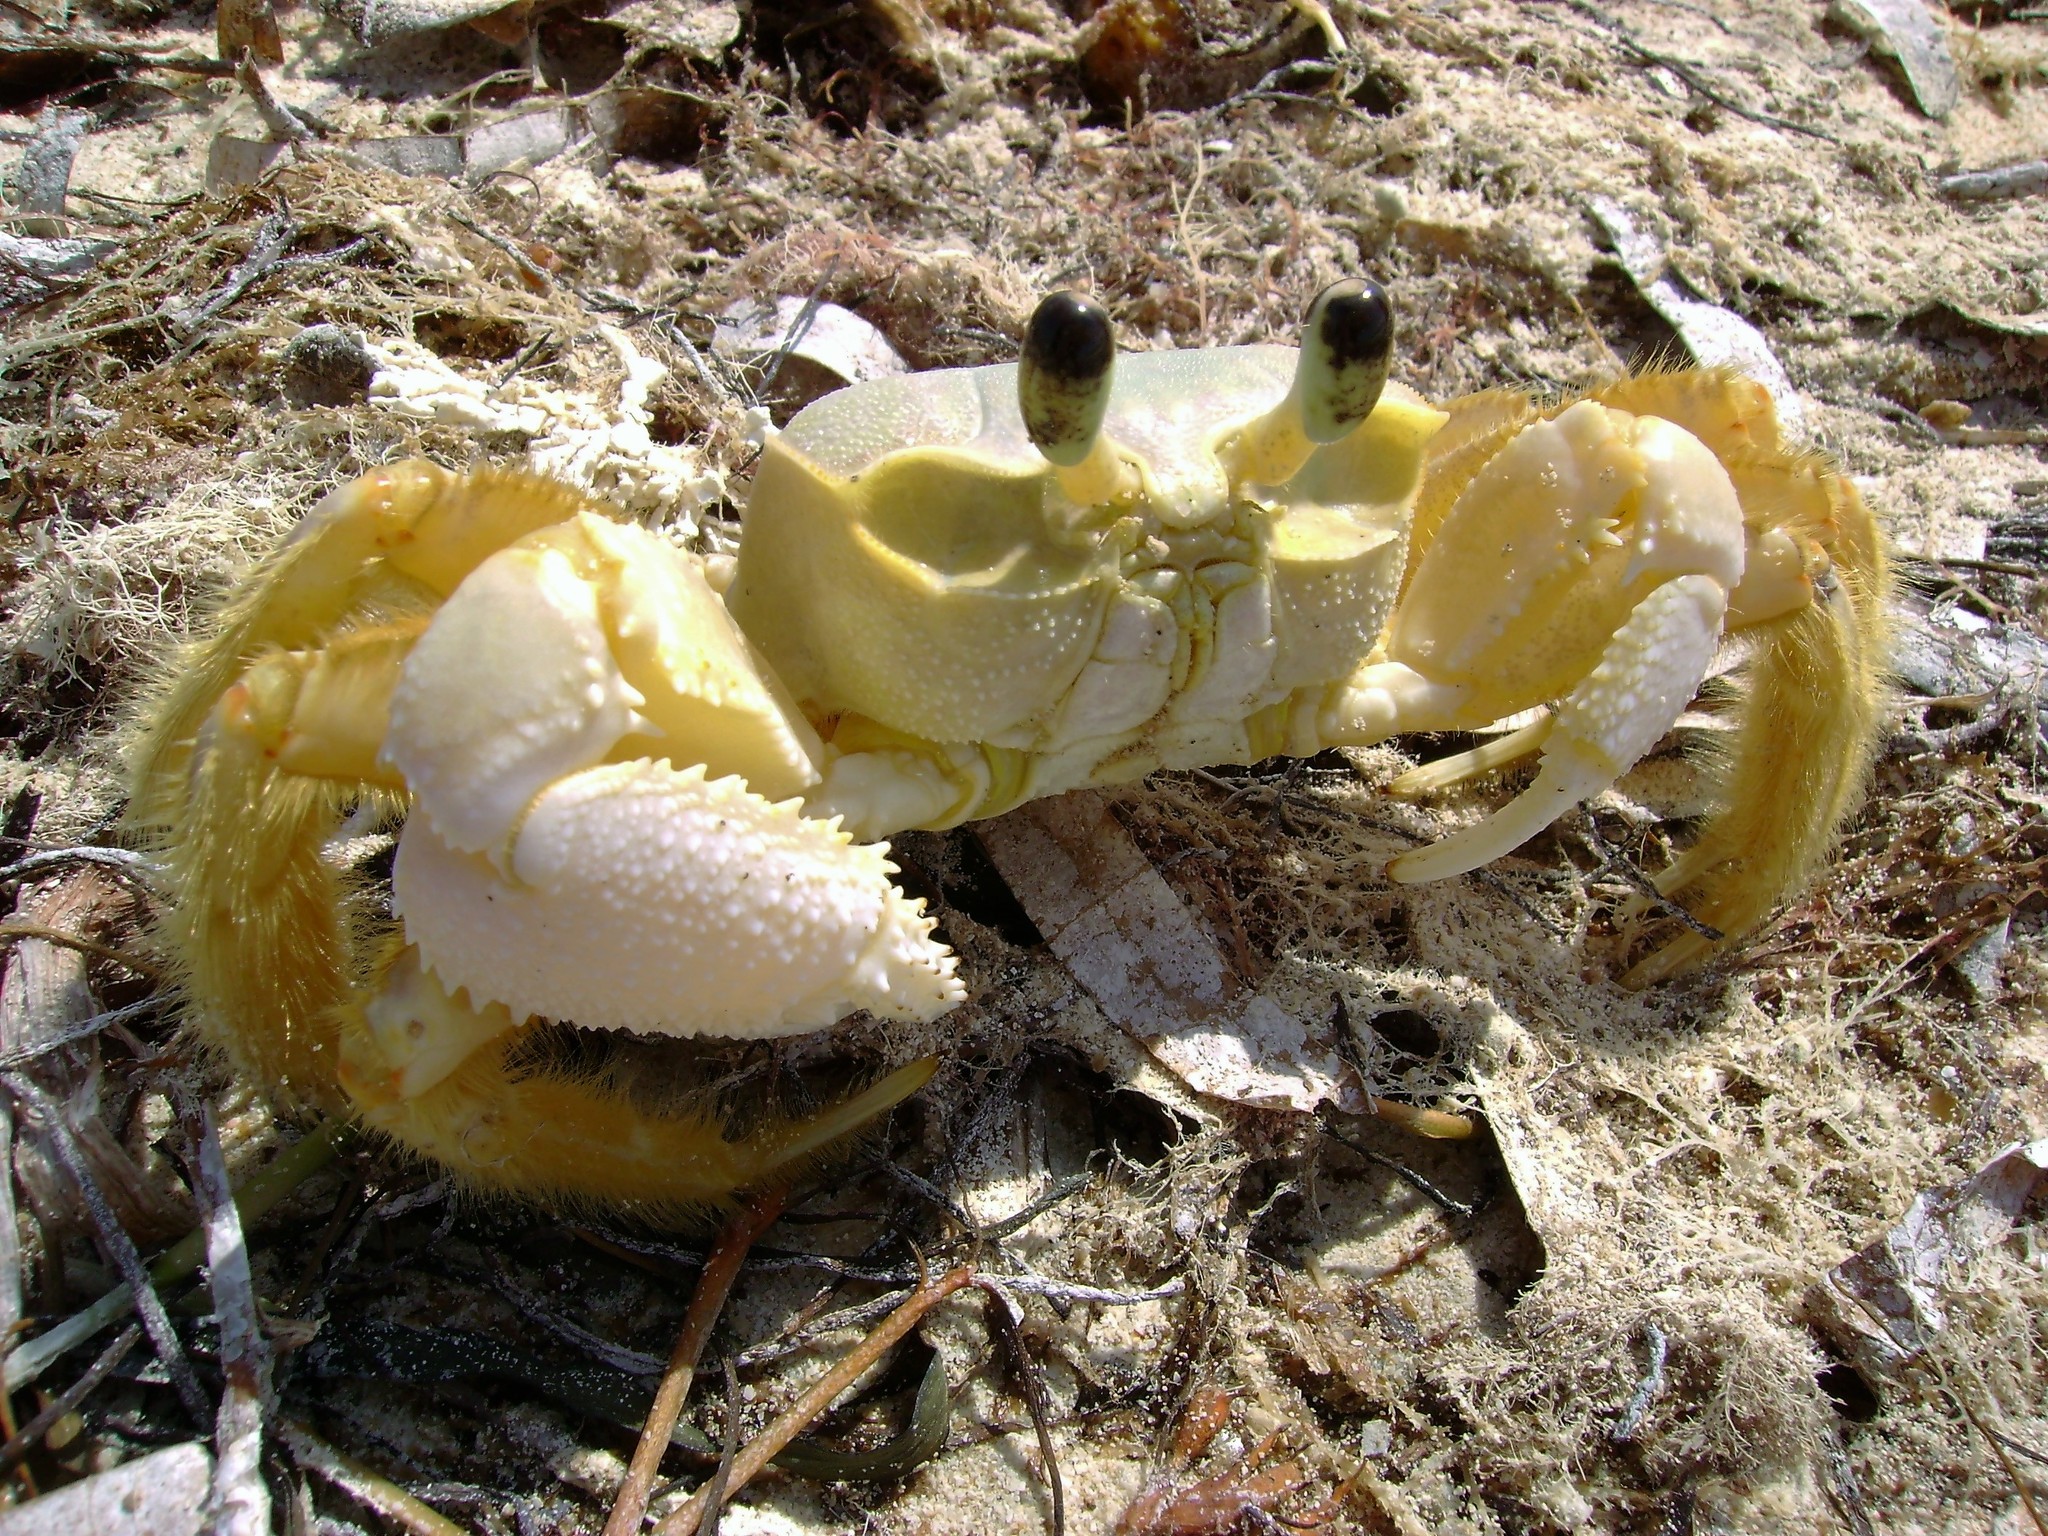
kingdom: Animalia
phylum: Arthropoda
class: Malacostraca
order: Decapoda
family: Ocypodidae
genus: Ocypode
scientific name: Ocypode quadrata
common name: Ghost crab
